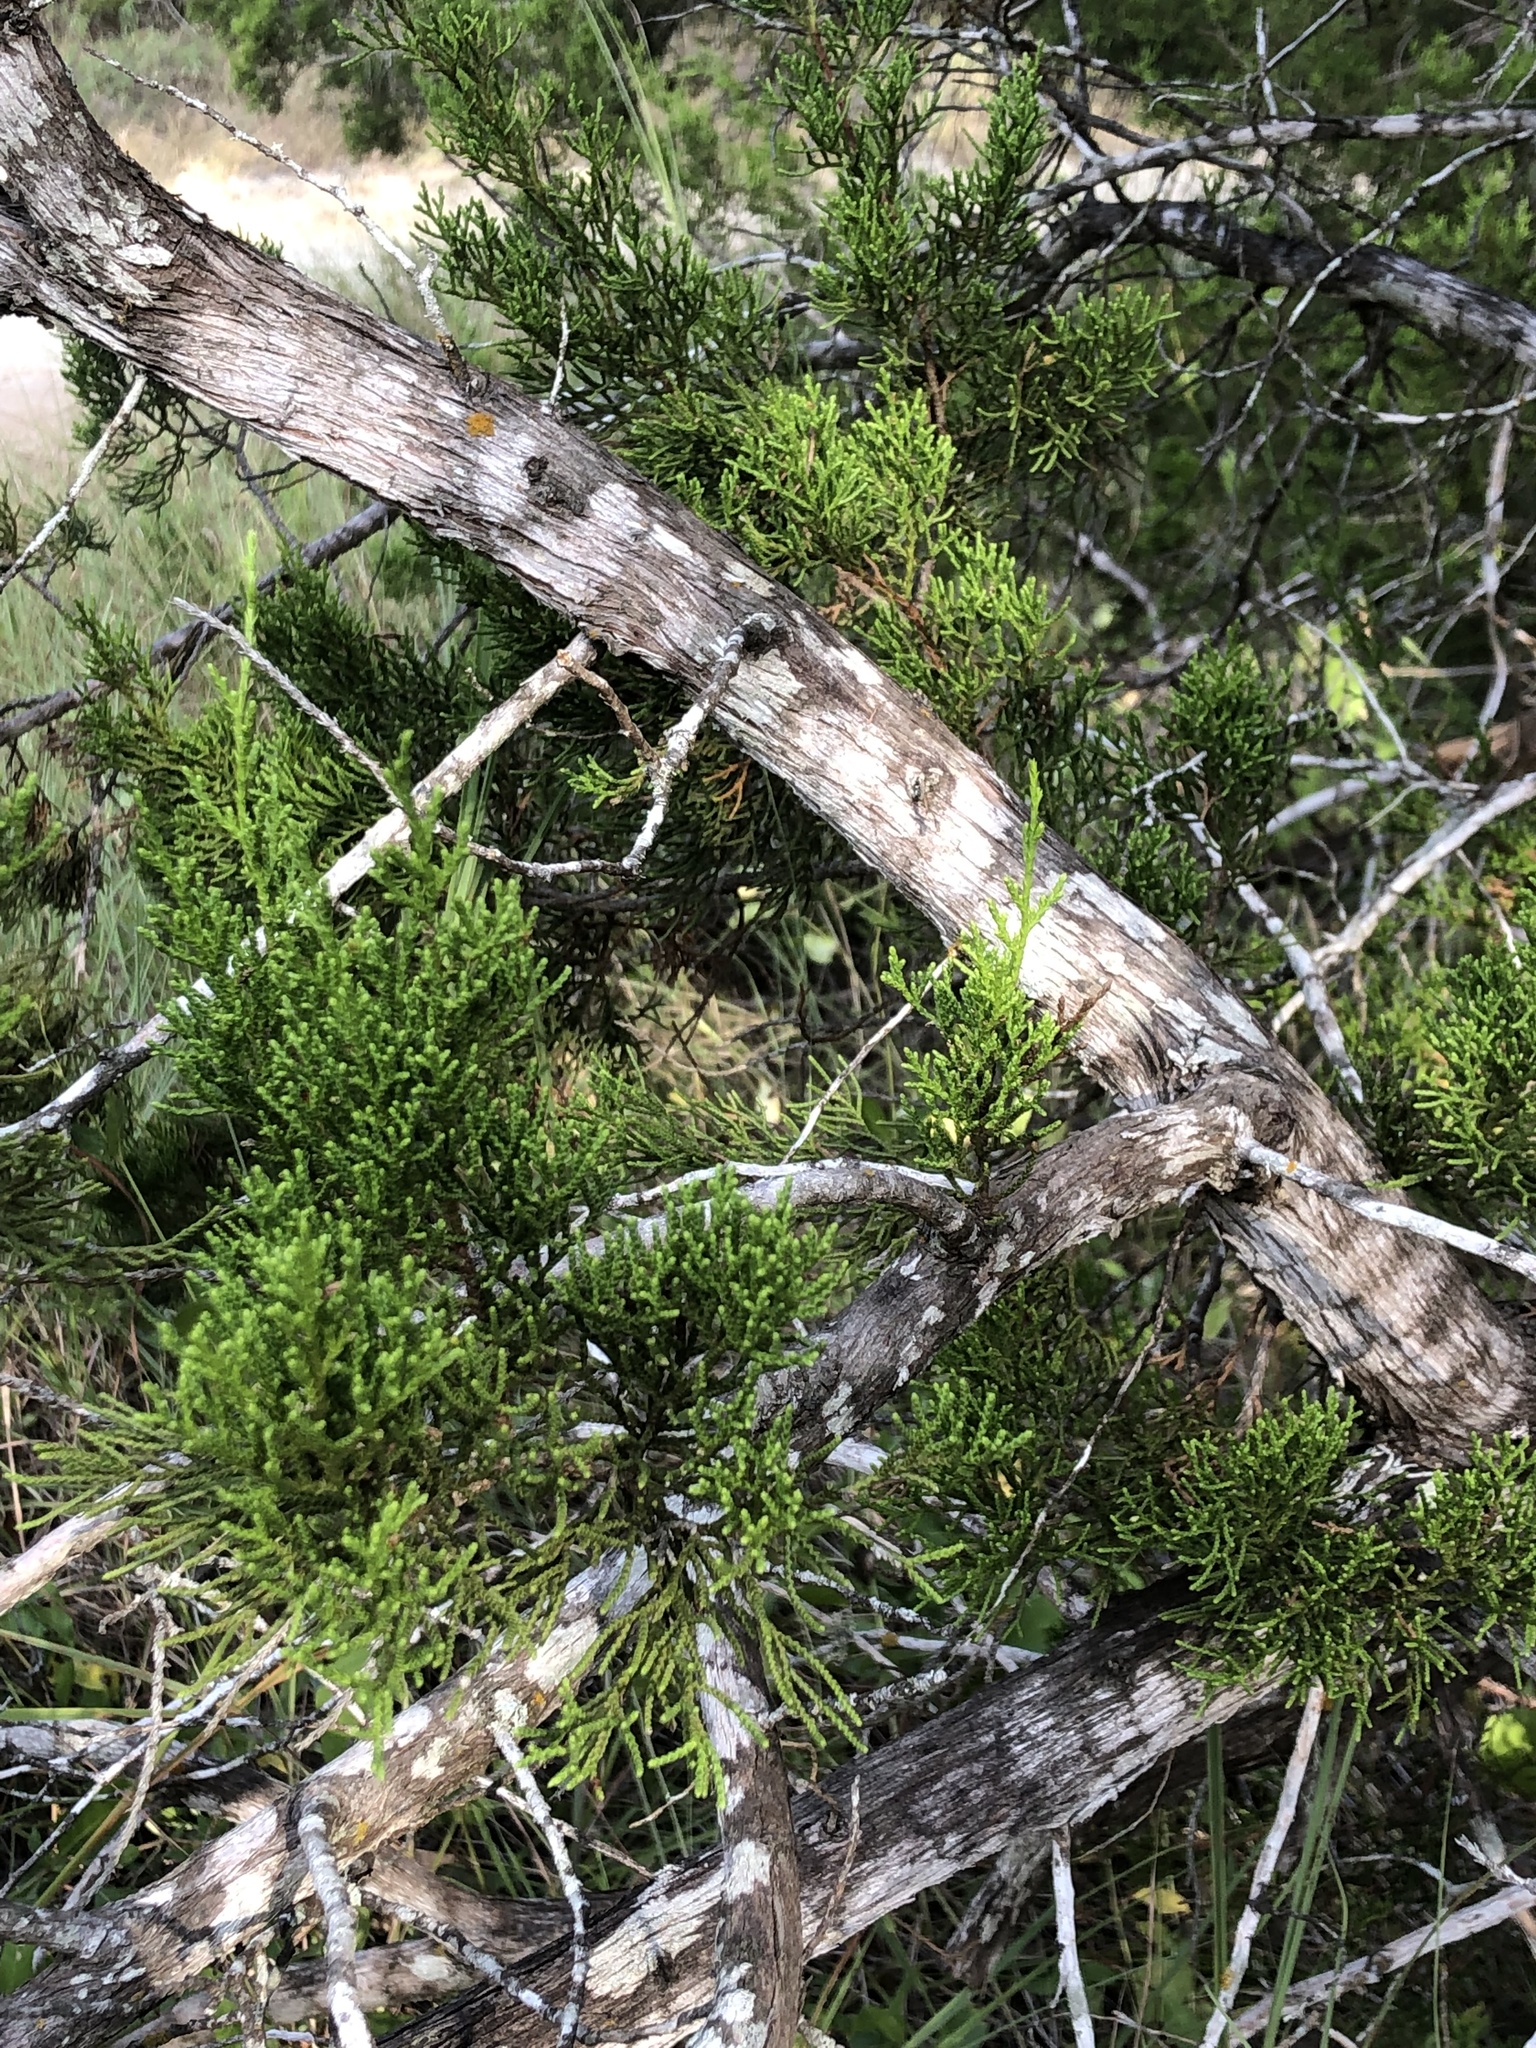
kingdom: Plantae
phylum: Tracheophyta
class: Pinopsida
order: Pinales
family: Cupressaceae
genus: Juniperus
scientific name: Juniperus ashei
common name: Mexican juniper
